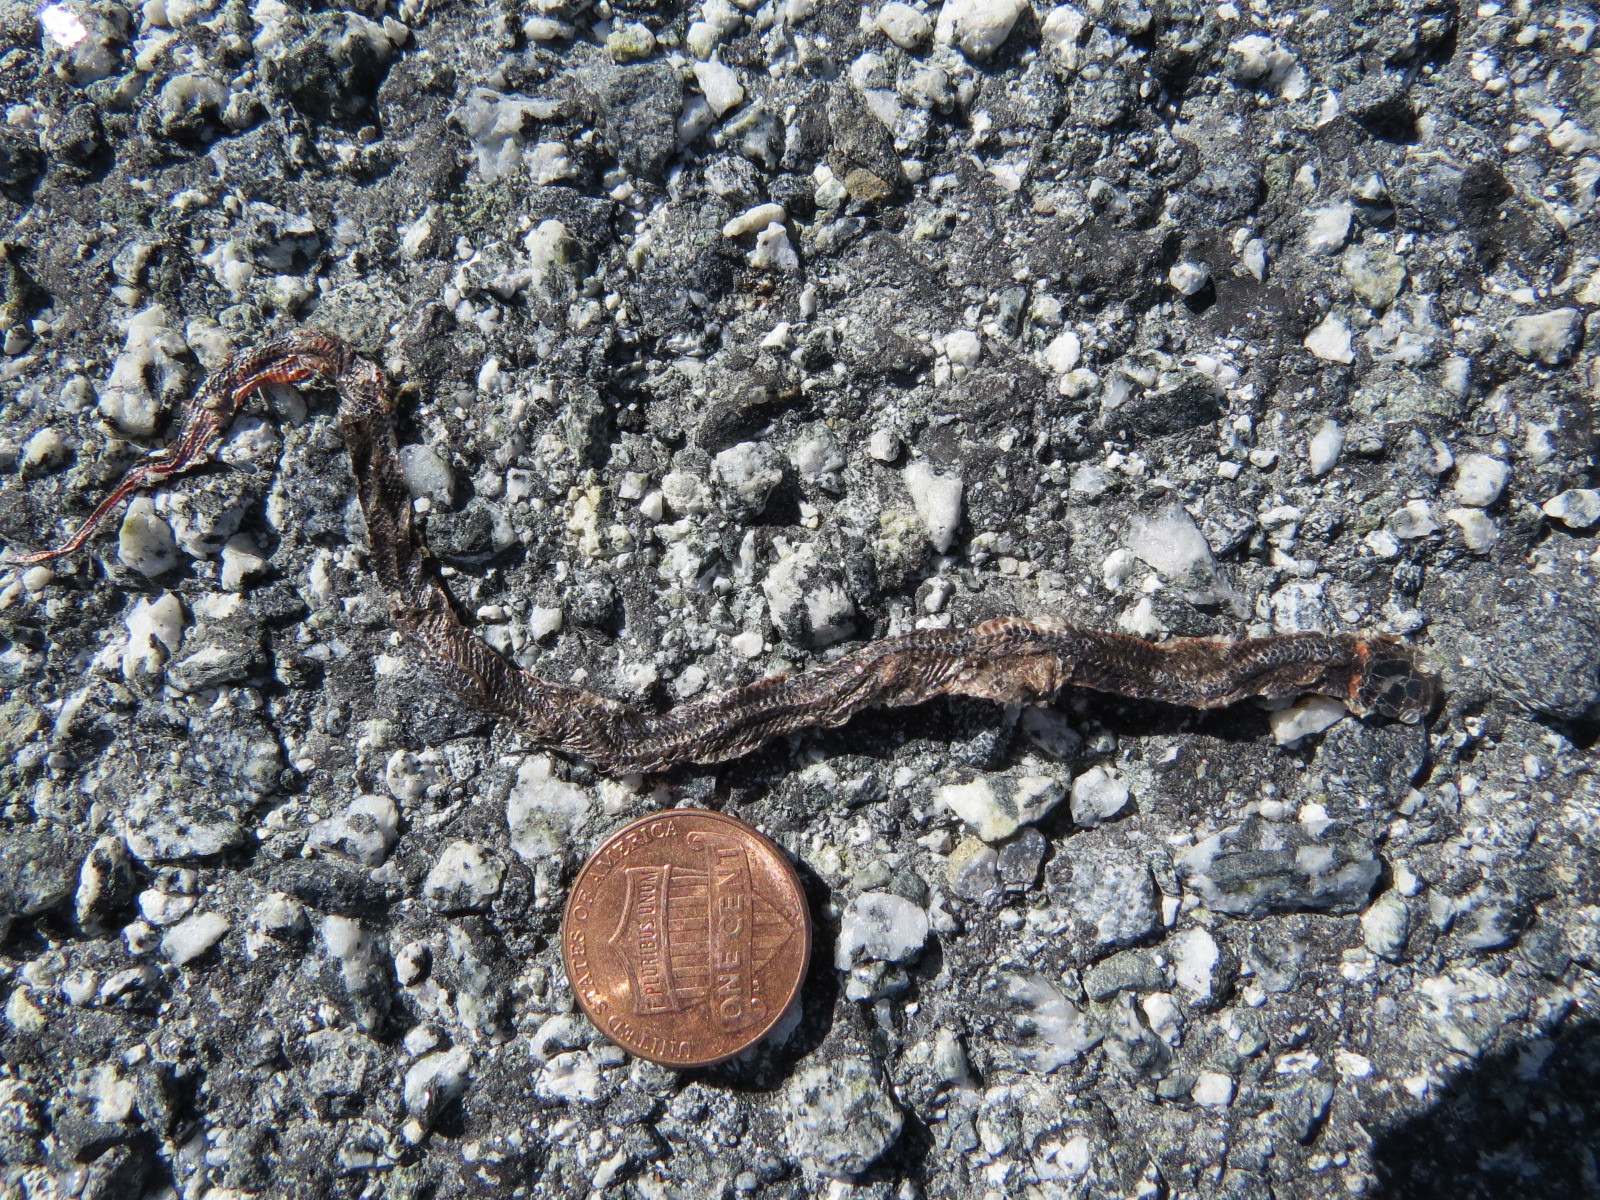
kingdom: Animalia
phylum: Chordata
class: Squamata
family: Colubridae
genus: Diadophis
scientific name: Diadophis punctatus
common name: Ringneck snake
